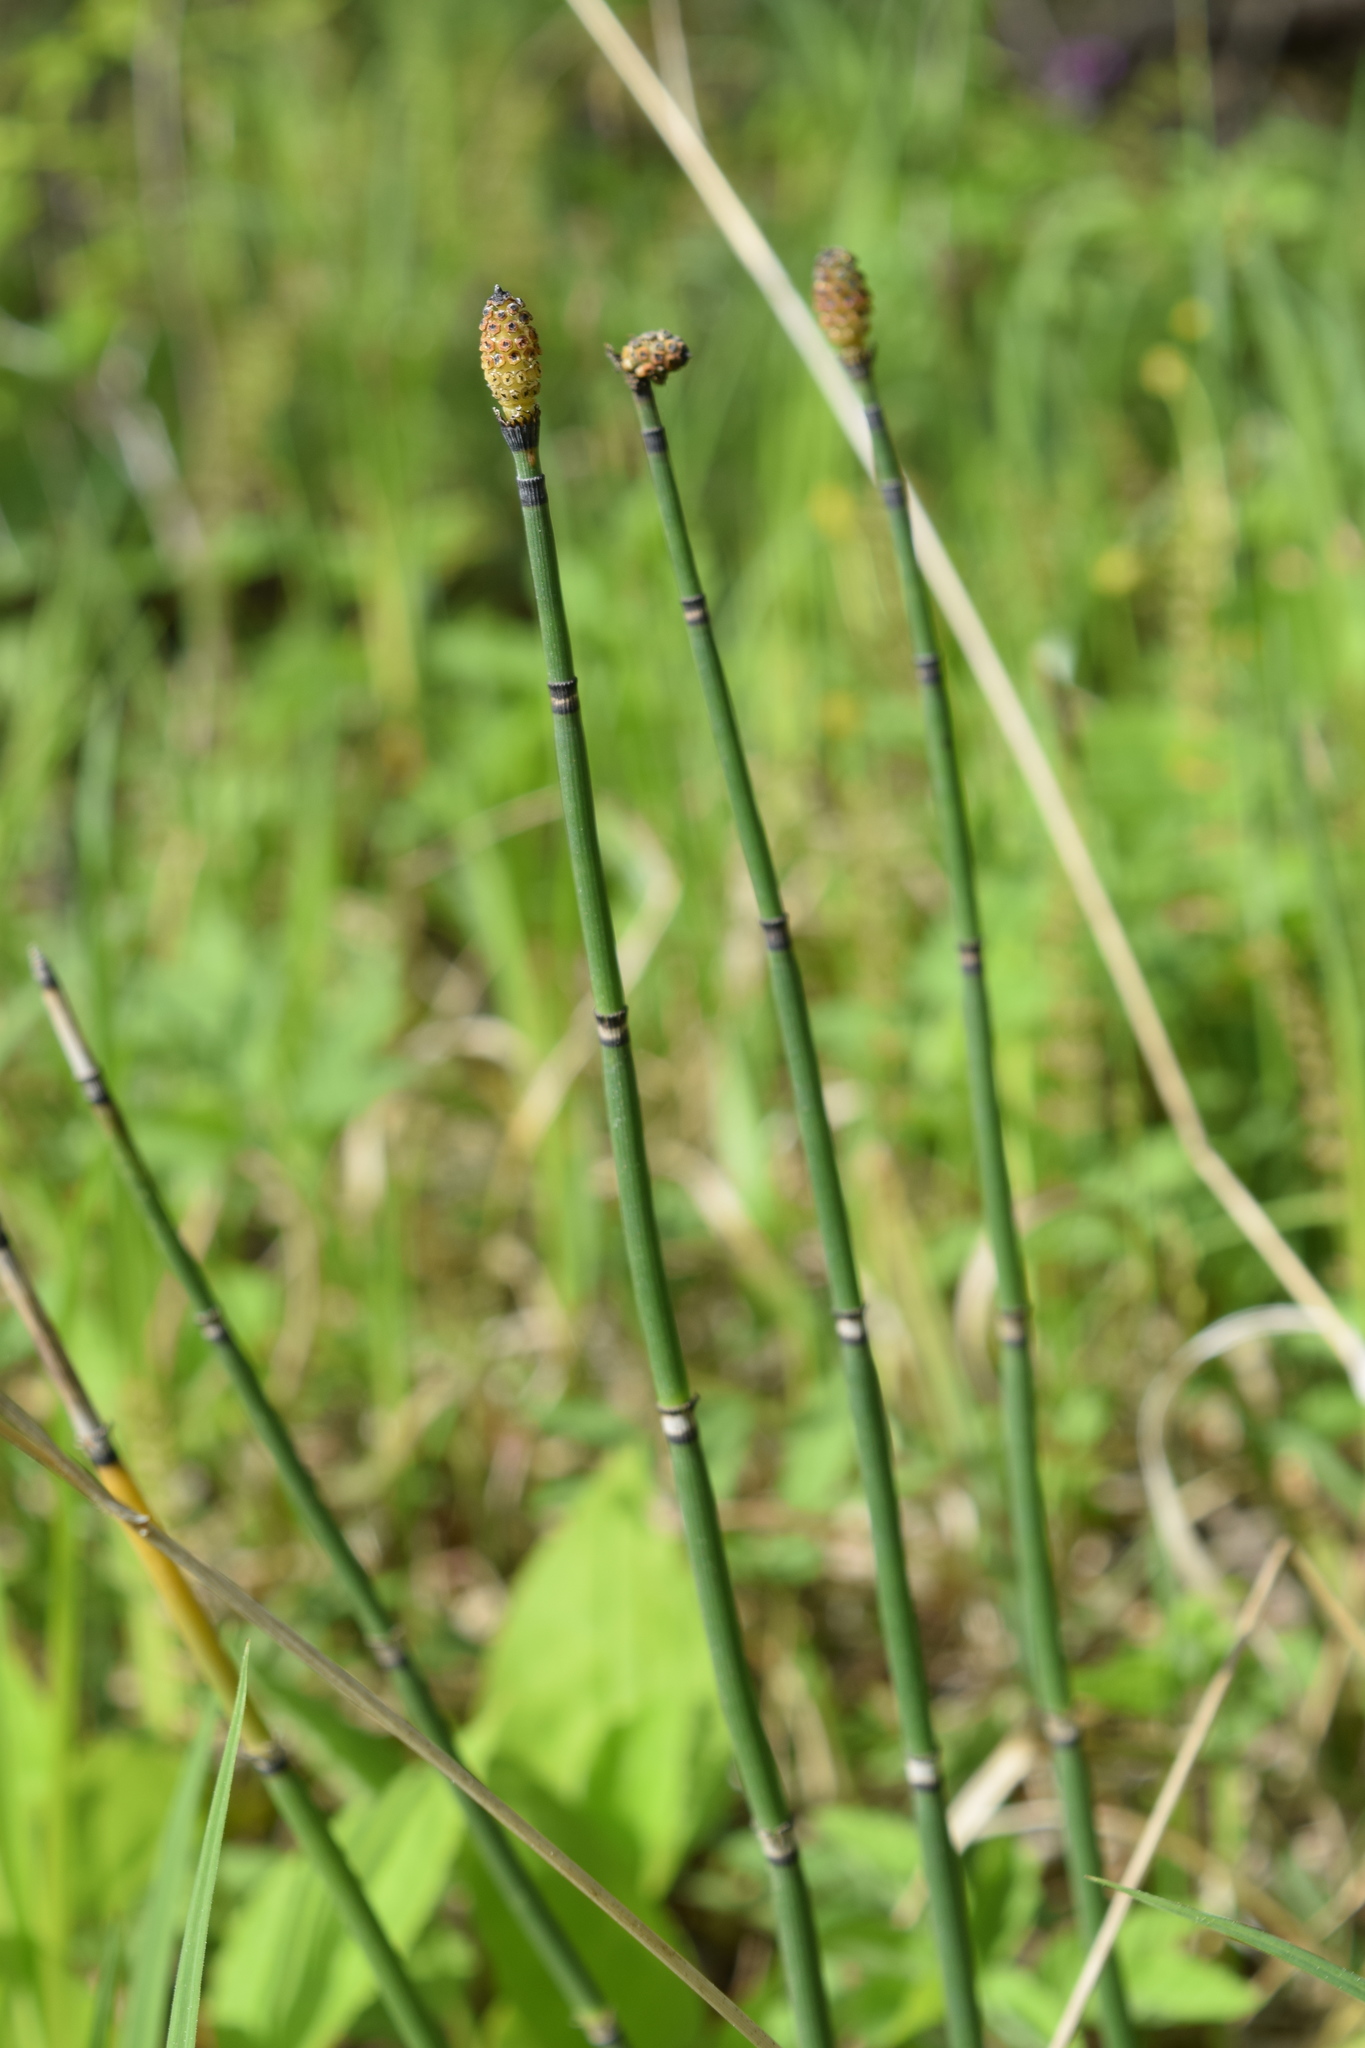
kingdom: Plantae
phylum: Tracheophyta
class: Polypodiopsida
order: Equisetales
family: Equisetaceae
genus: Equisetum
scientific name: Equisetum hyemale
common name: Rough horsetail
